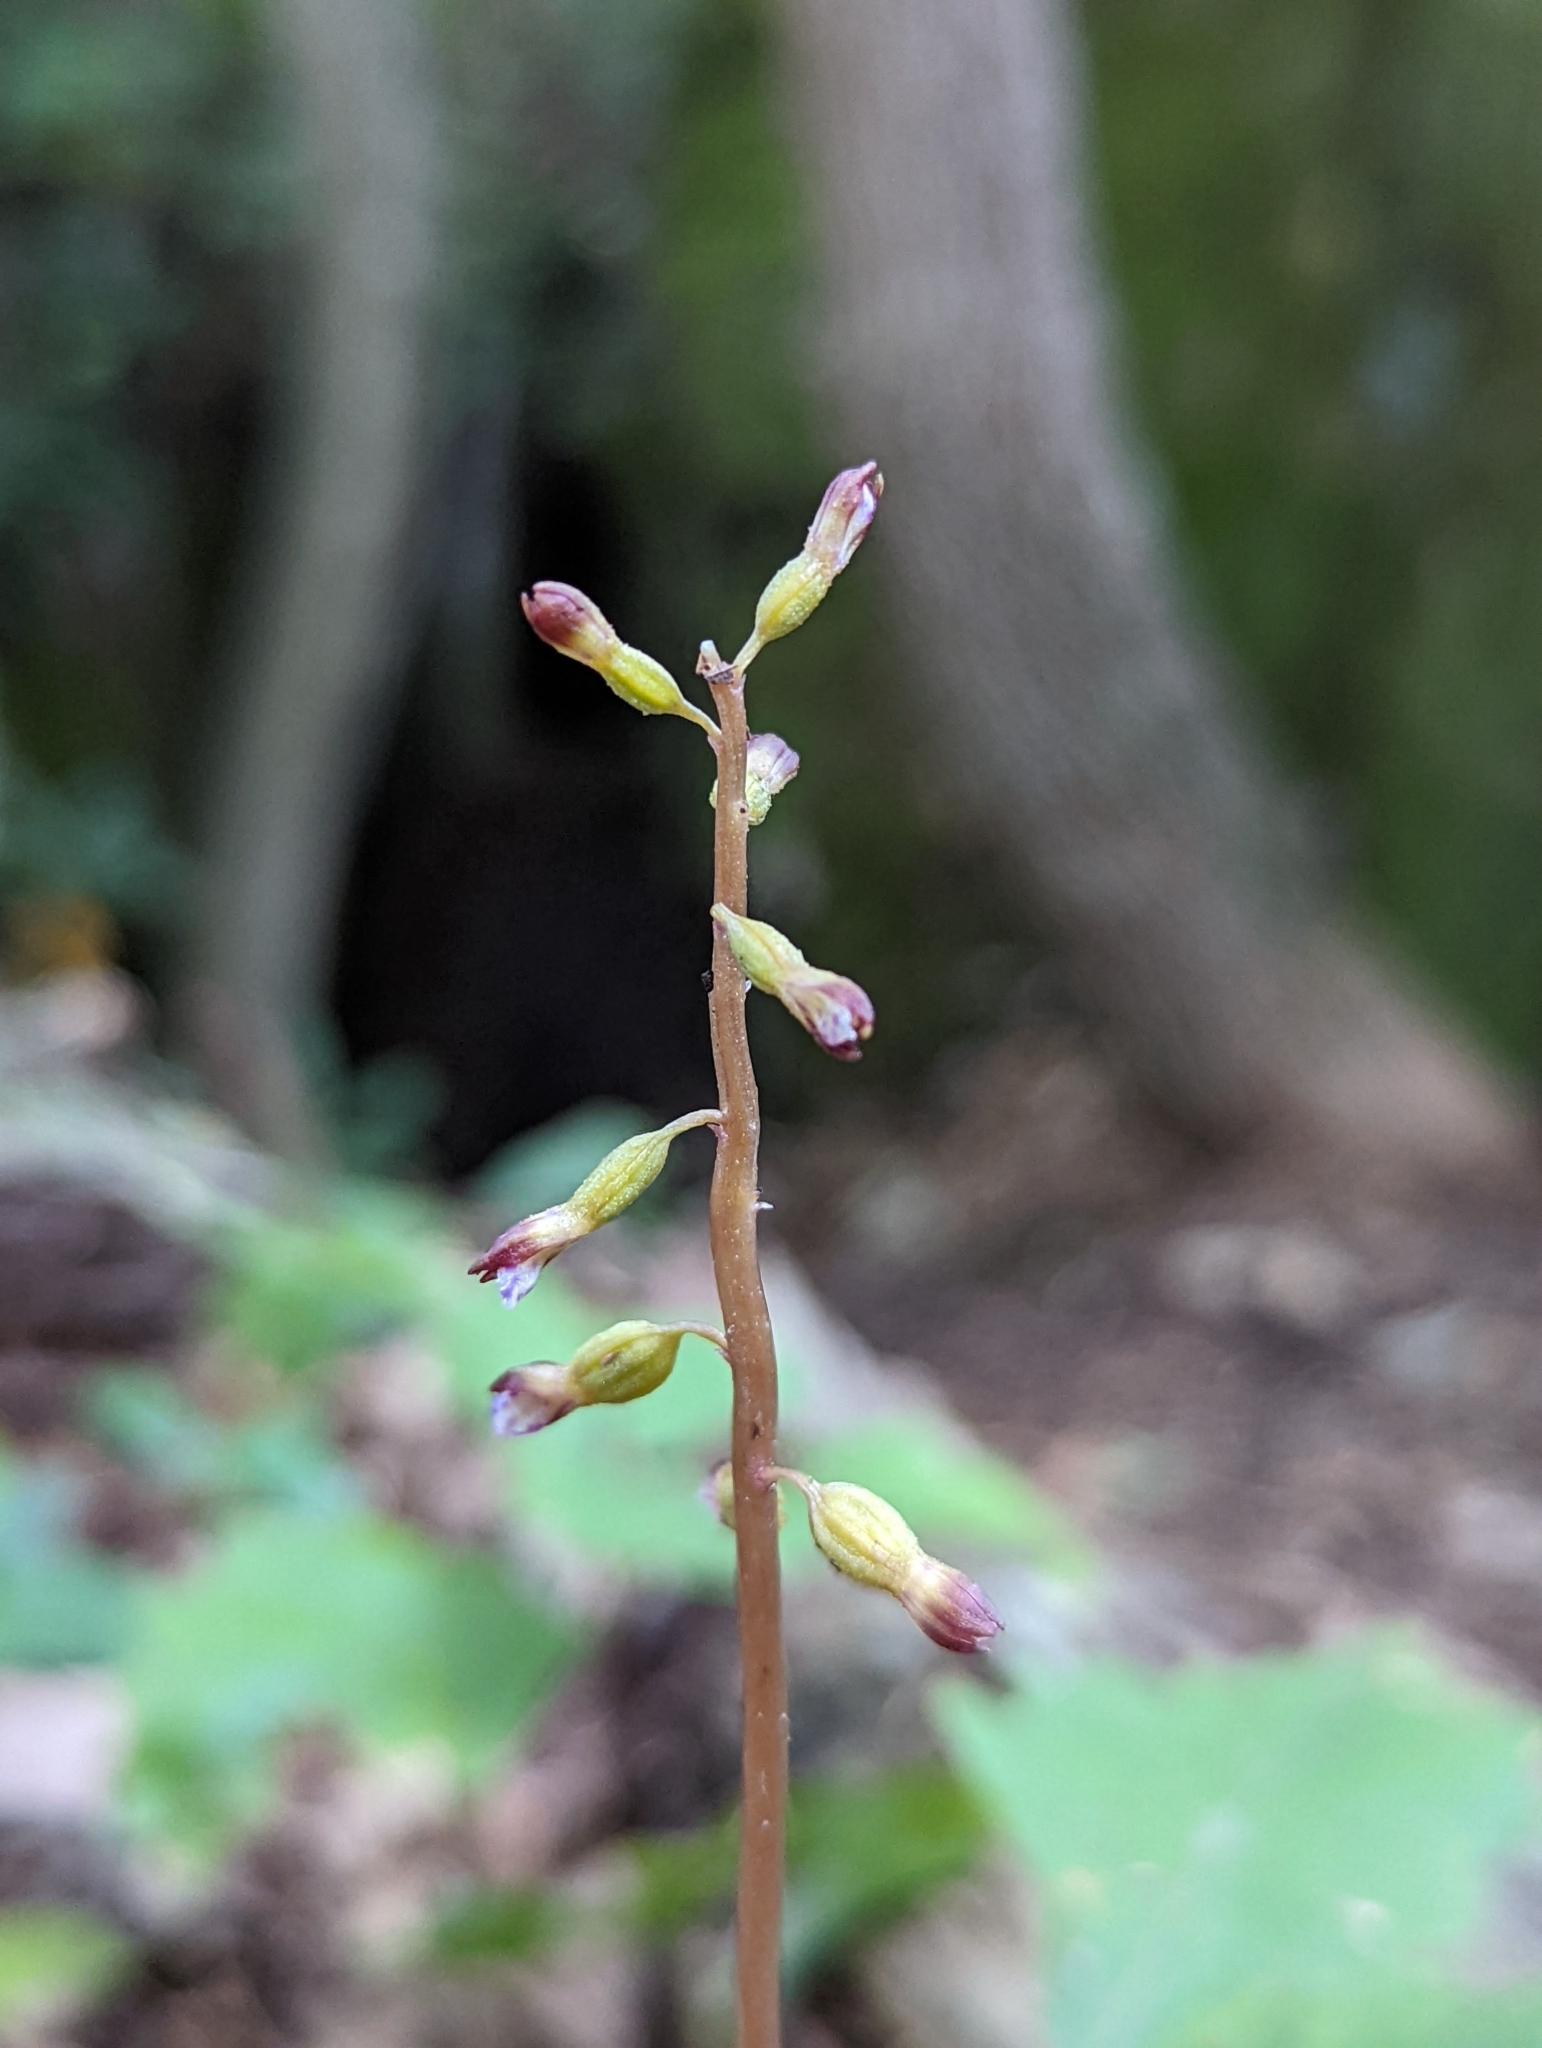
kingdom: Plantae
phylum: Tracheophyta
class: Liliopsida
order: Asparagales
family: Orchidaceae
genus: Corallorhiza
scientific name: Corallorhiza odontorhiza
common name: Autumn coralroot
